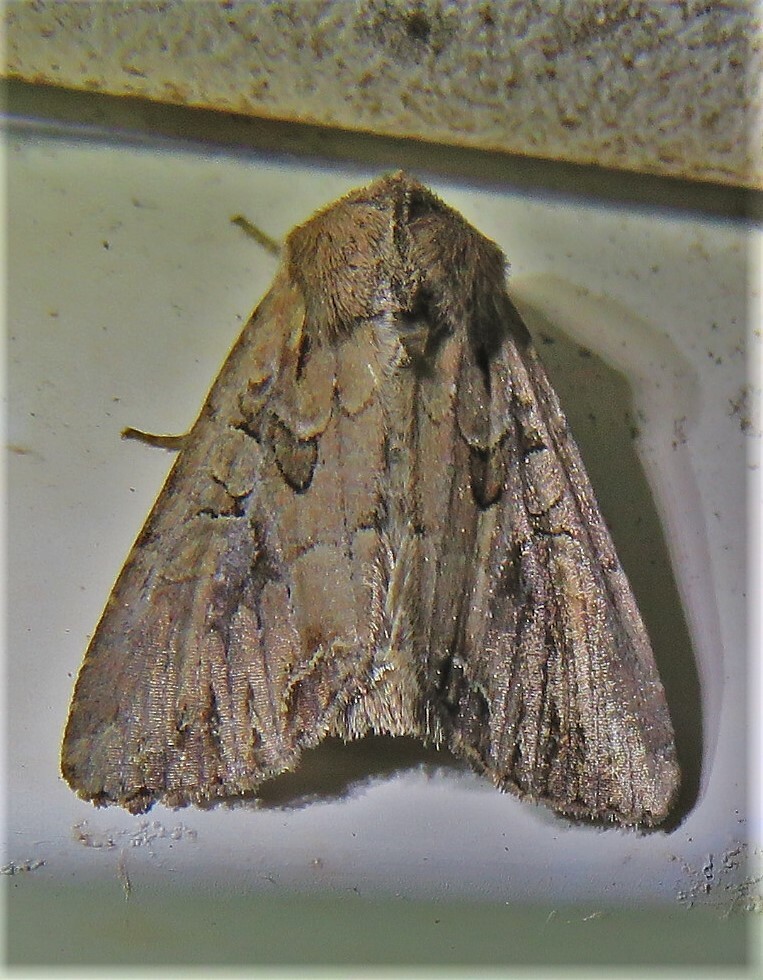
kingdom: Animalia
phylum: Arthropoda
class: Insecta
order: Lepidoptera
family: Noctuidae
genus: Lacanobia
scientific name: Lacanobia atlantica
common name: Atlantic arches moth
